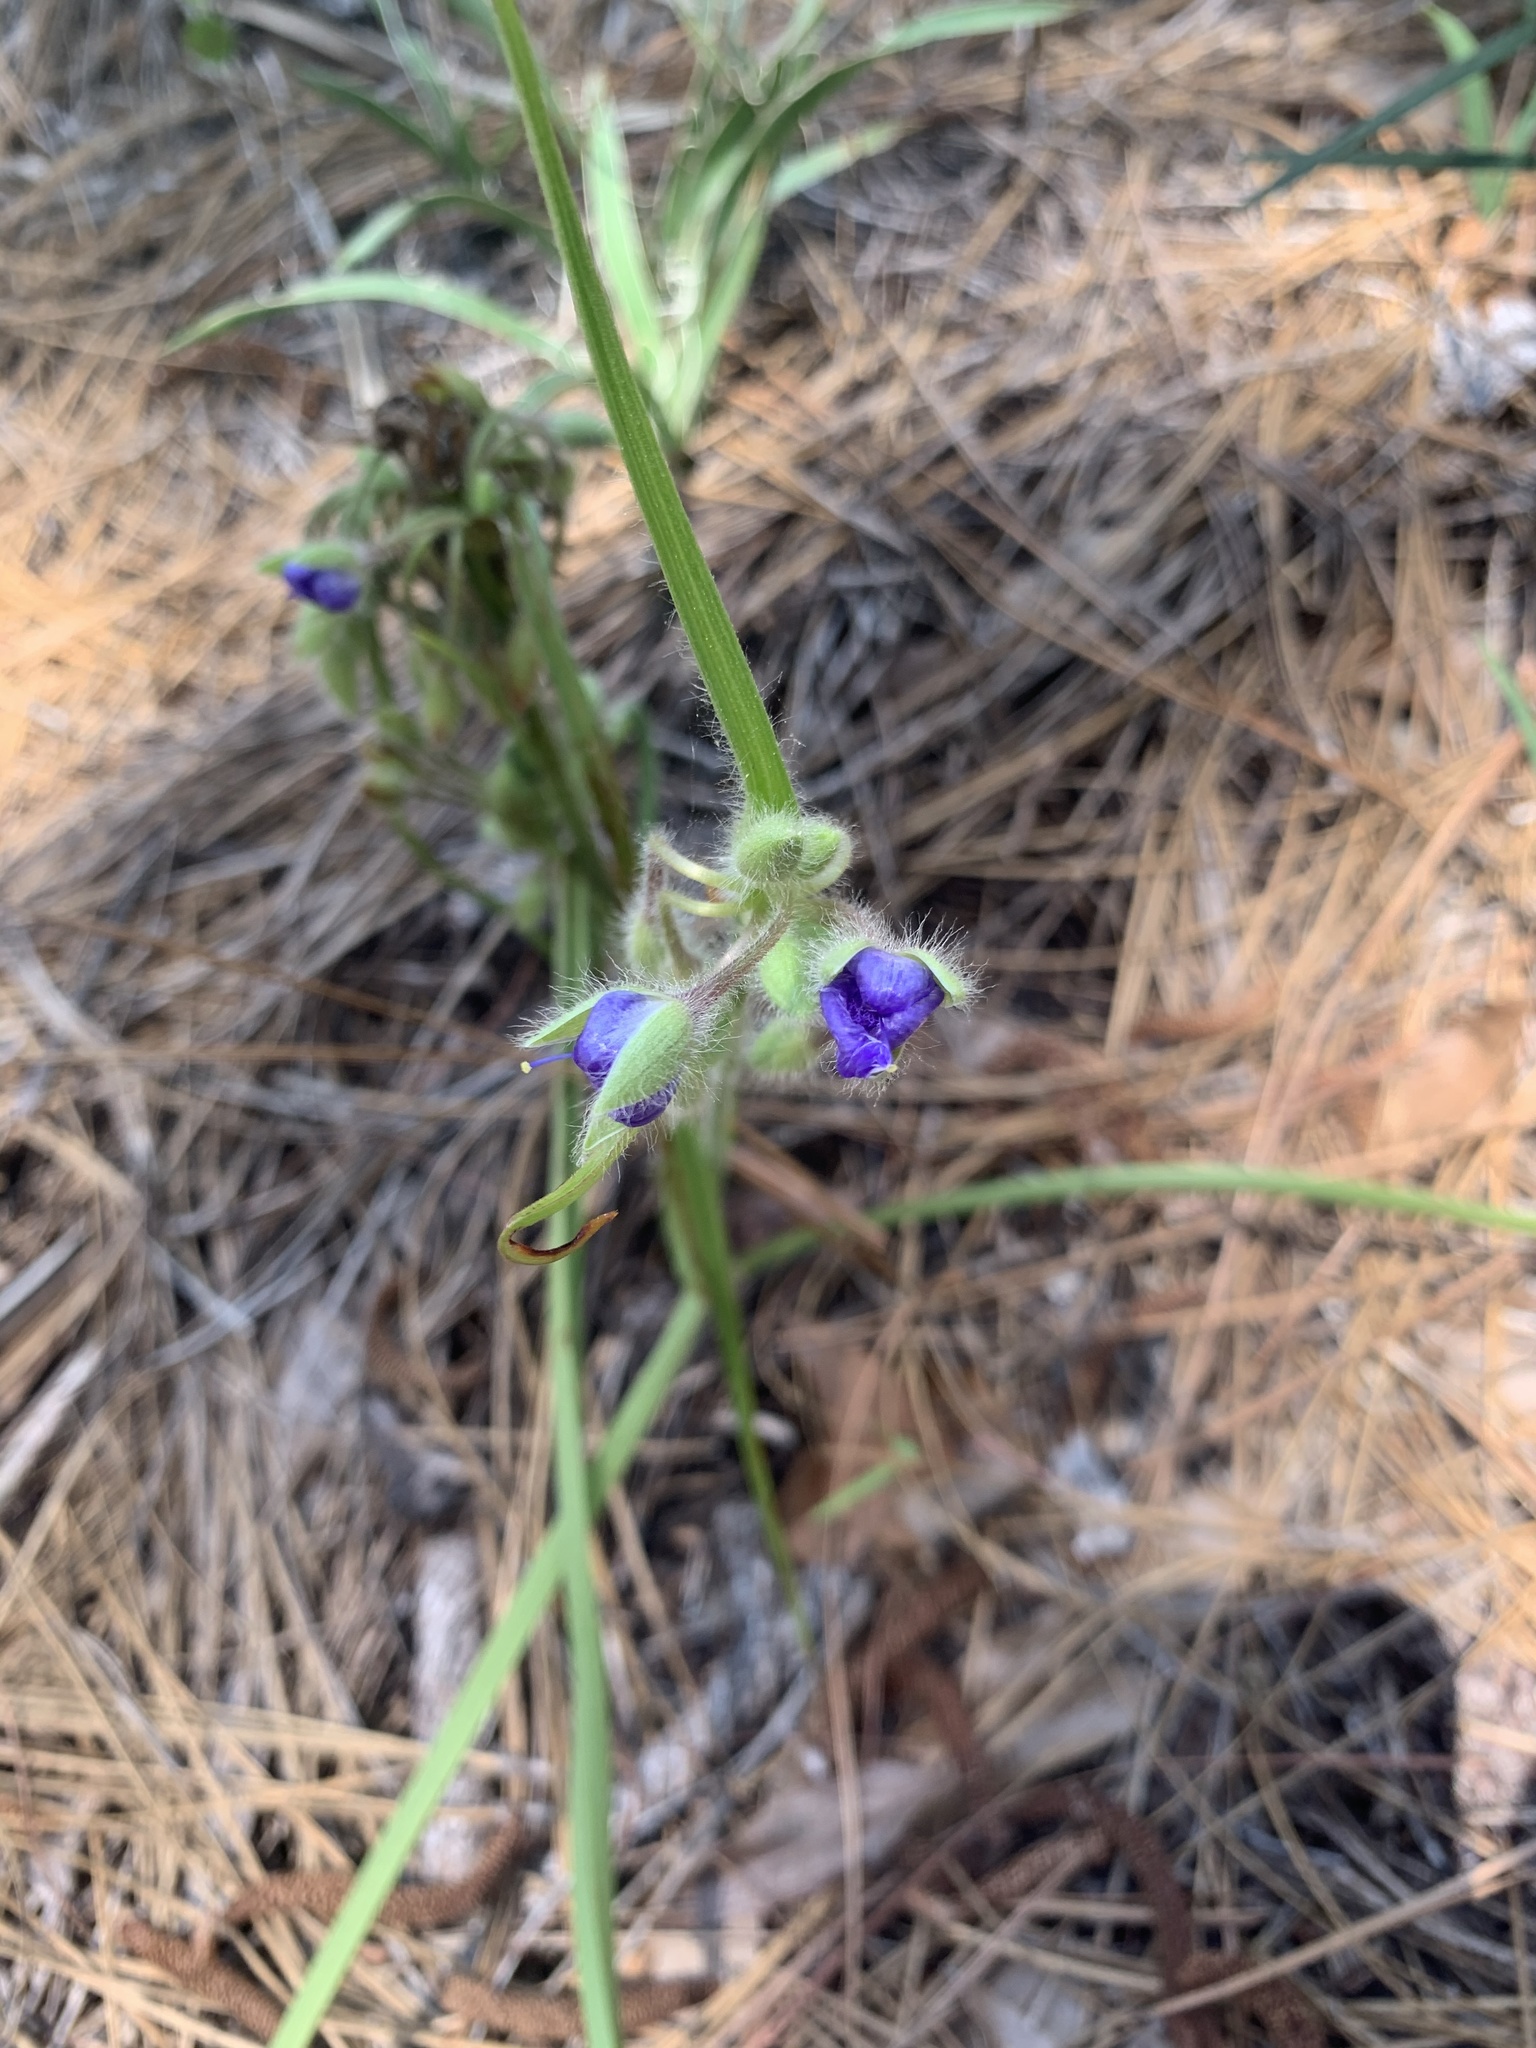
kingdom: Plantae
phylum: Tracheophyta
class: Liliopsida
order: Commelinales
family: Commelinaceae
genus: Tradescantia
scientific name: Tradescantia hirsutiflora
